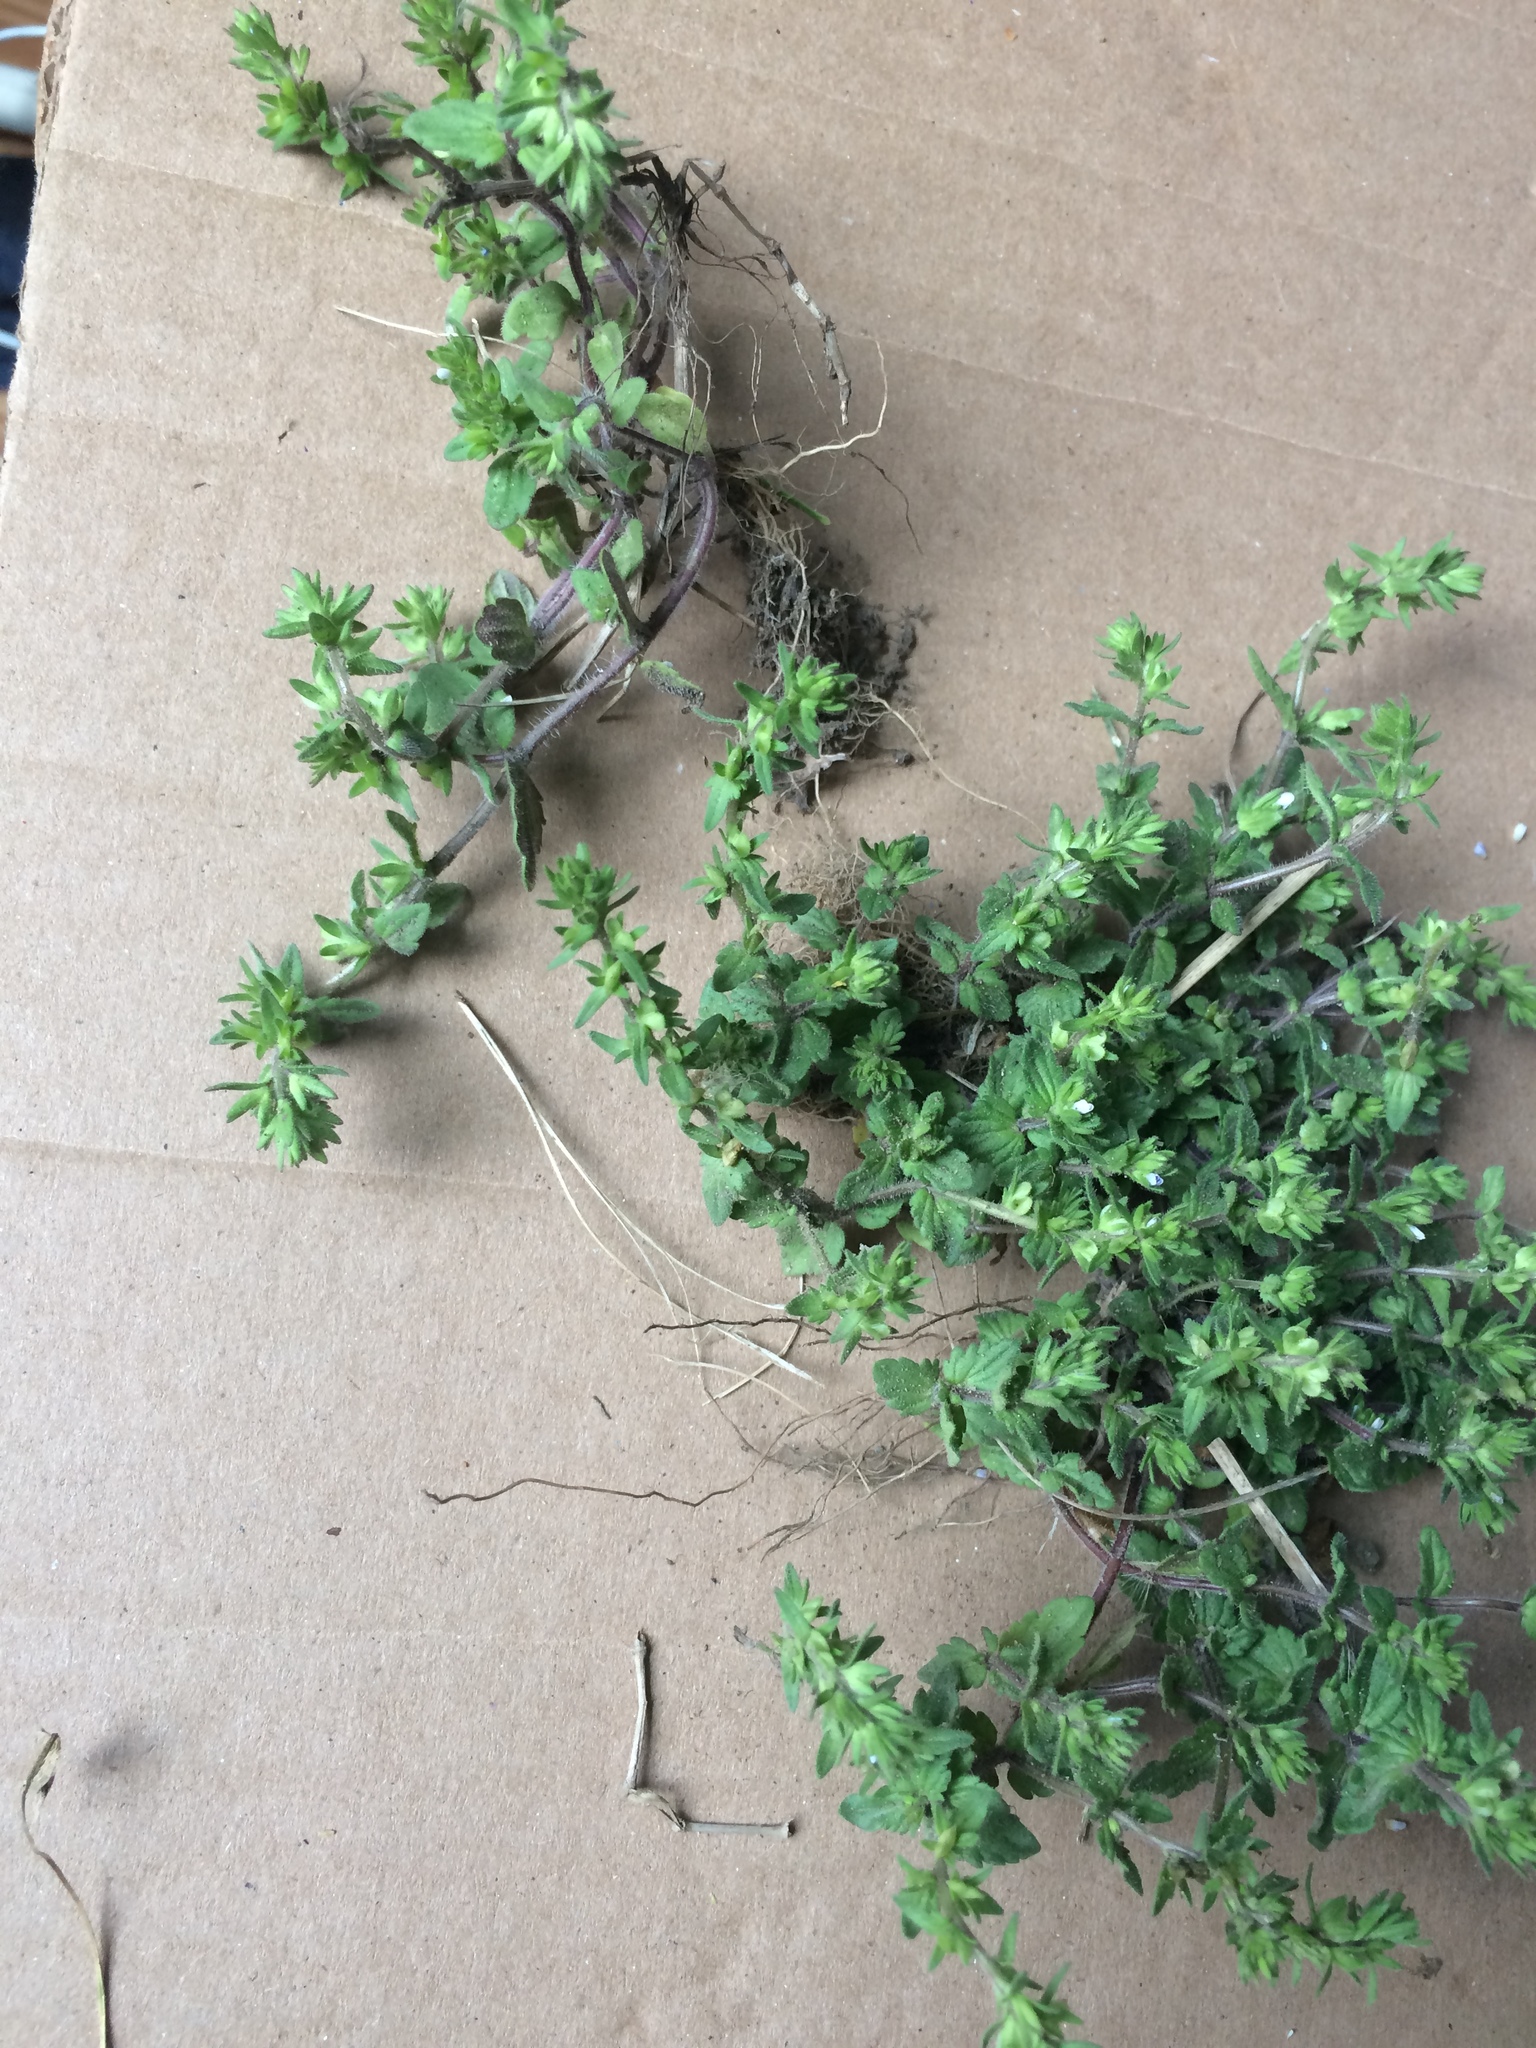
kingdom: Plantae
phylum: Tracheophyta
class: Magnoliopsida
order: Lamiales
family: Plantaginaceae
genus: Veronica
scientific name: Veronica arvensis
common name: Corn speedwell
